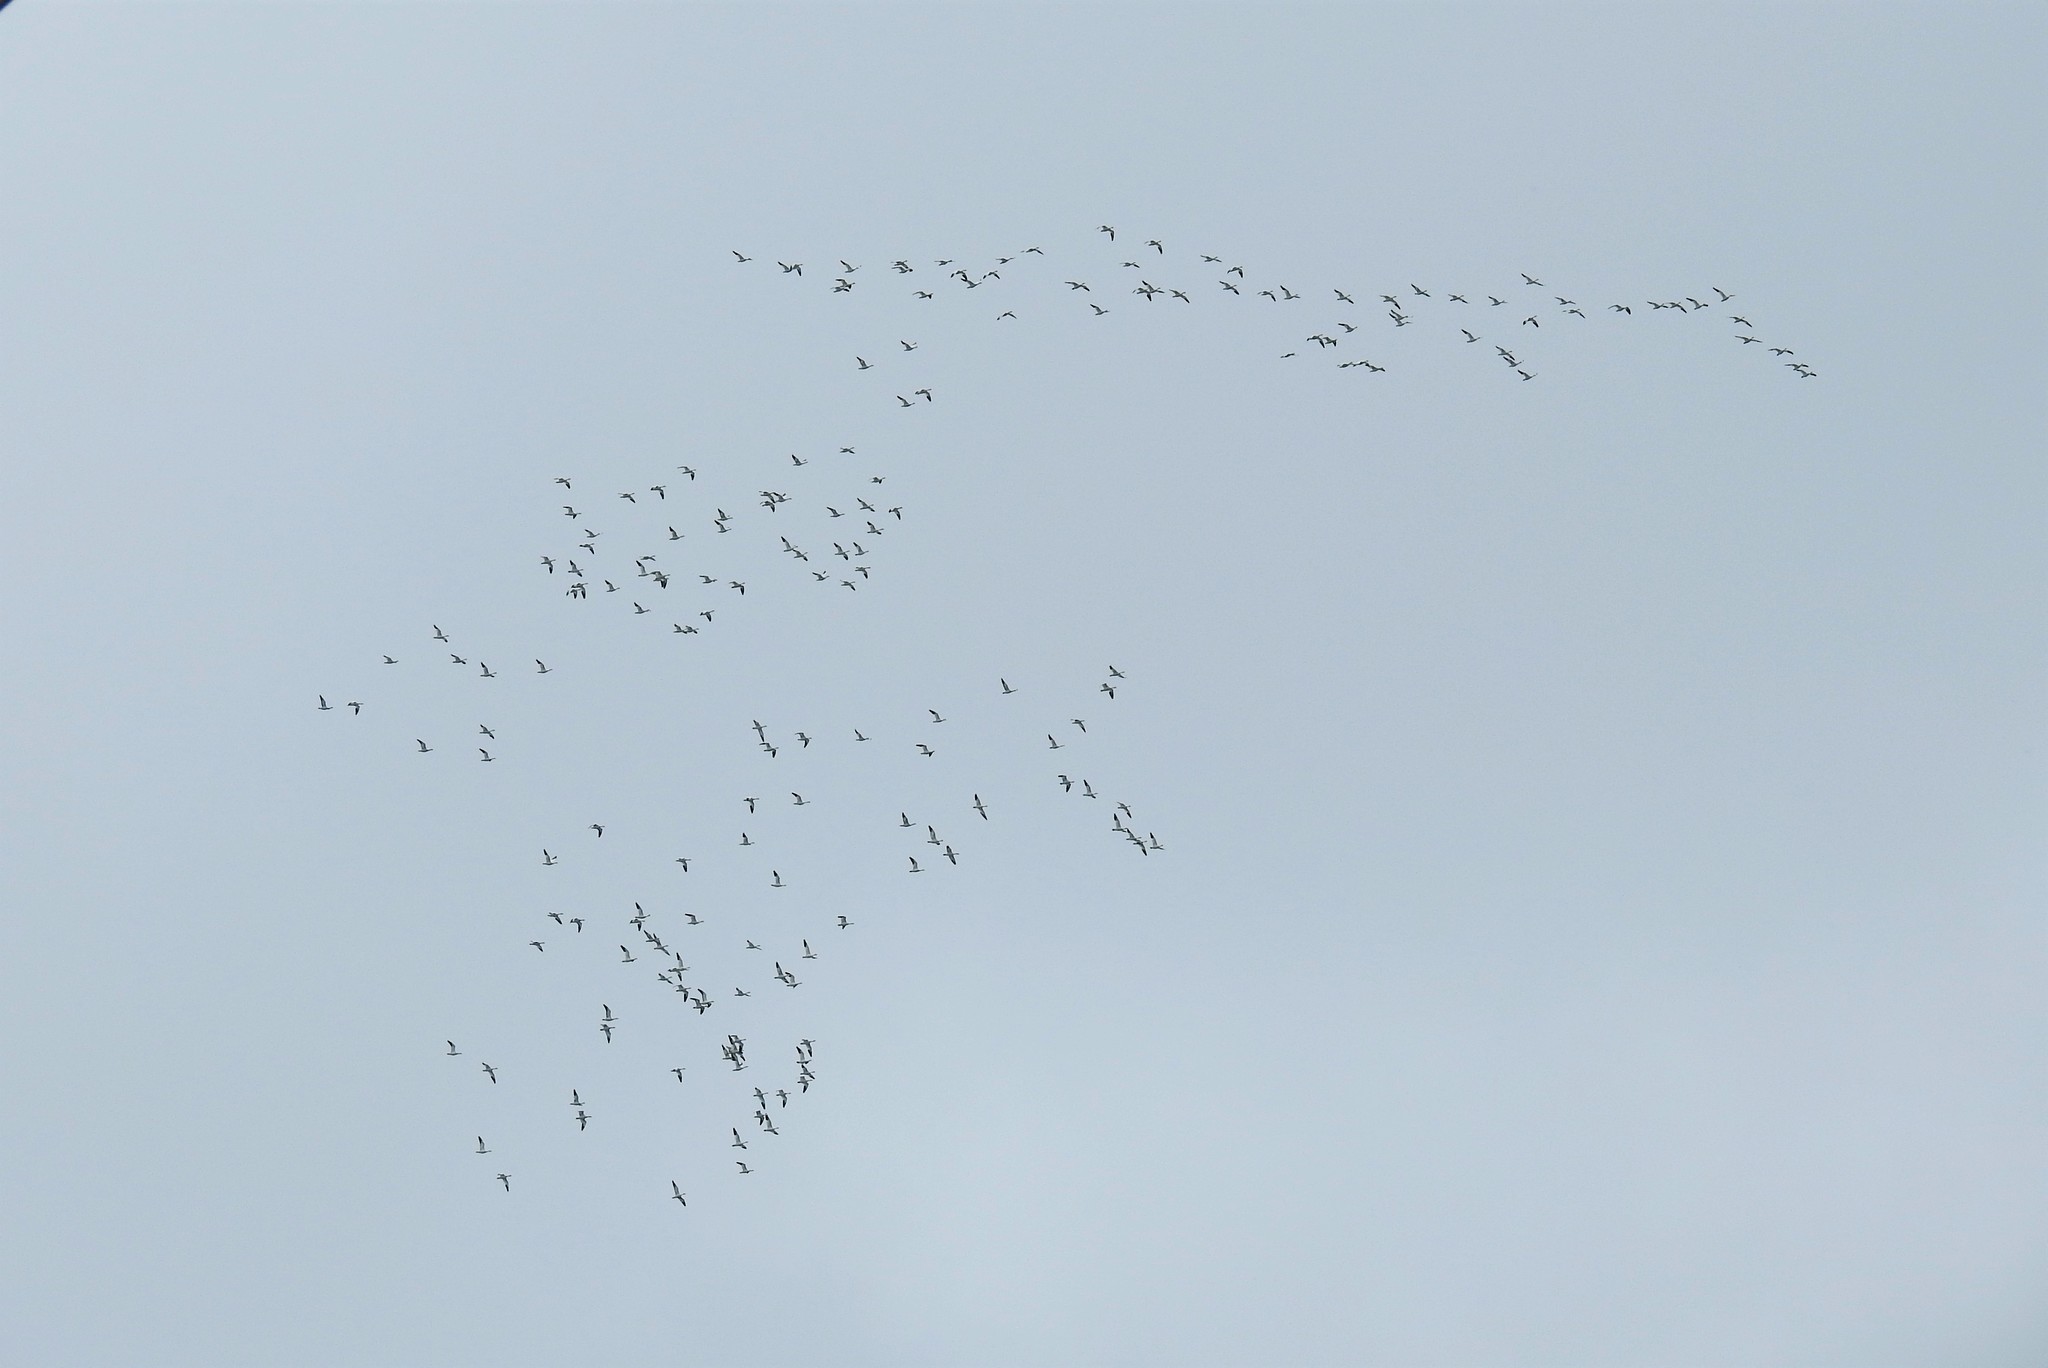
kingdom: Animalia
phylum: Chordata
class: Aves
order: Anseriformes
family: Anatidae
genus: Anser
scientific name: Anser caerulescens
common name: Snow goose
